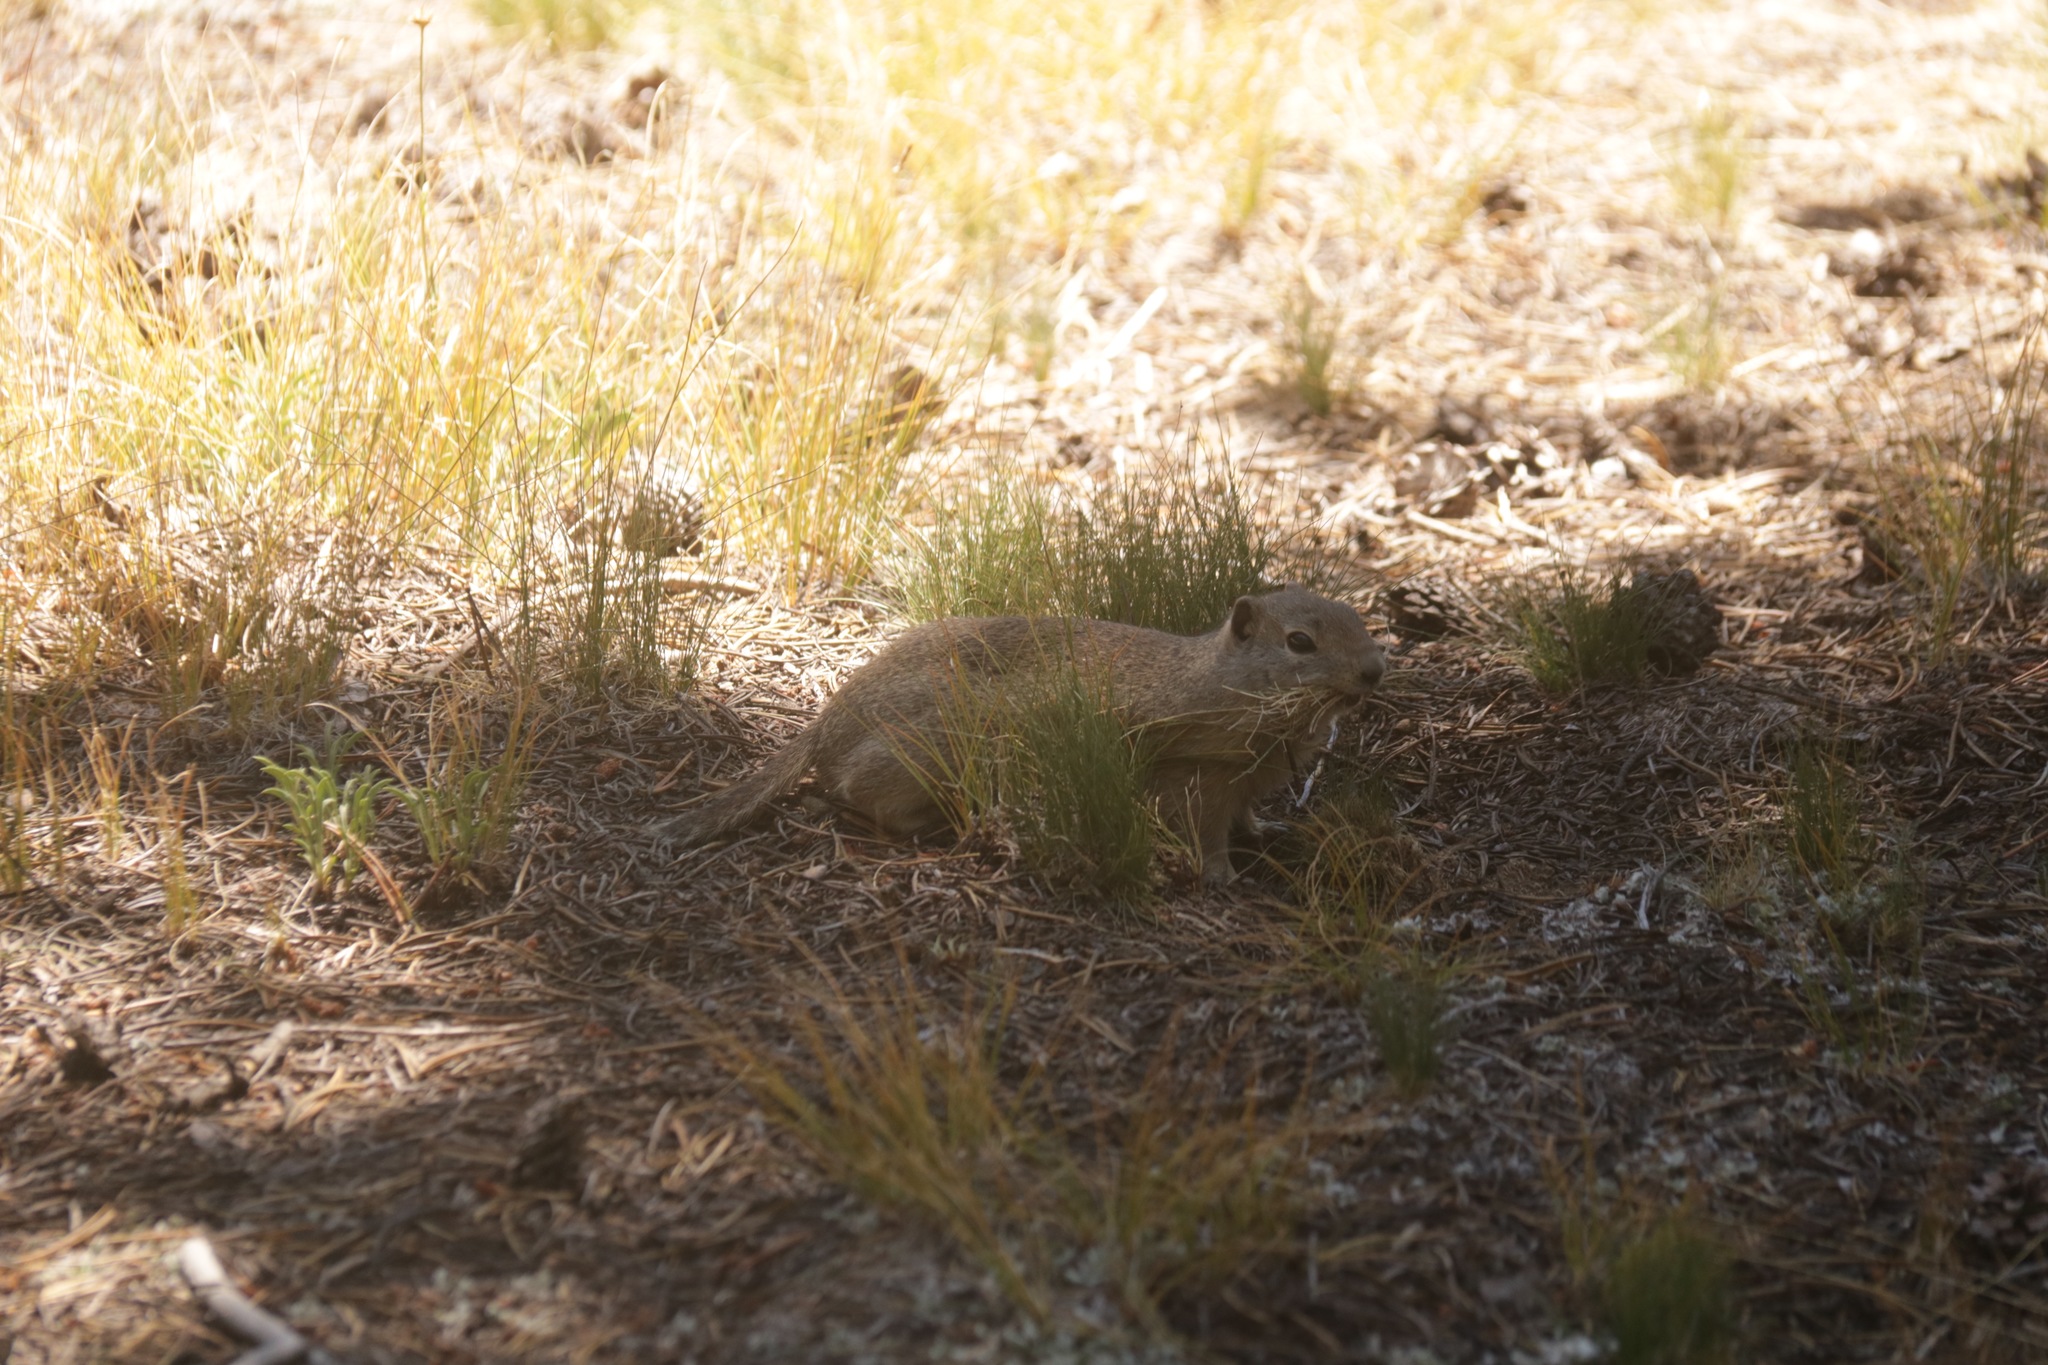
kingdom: Animalia
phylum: Chordata
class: Mammalia
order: Rodentia
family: Sciuridae
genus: Urocitellus
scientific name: Urocitellus beldingi
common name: Belding's ground squirrel
